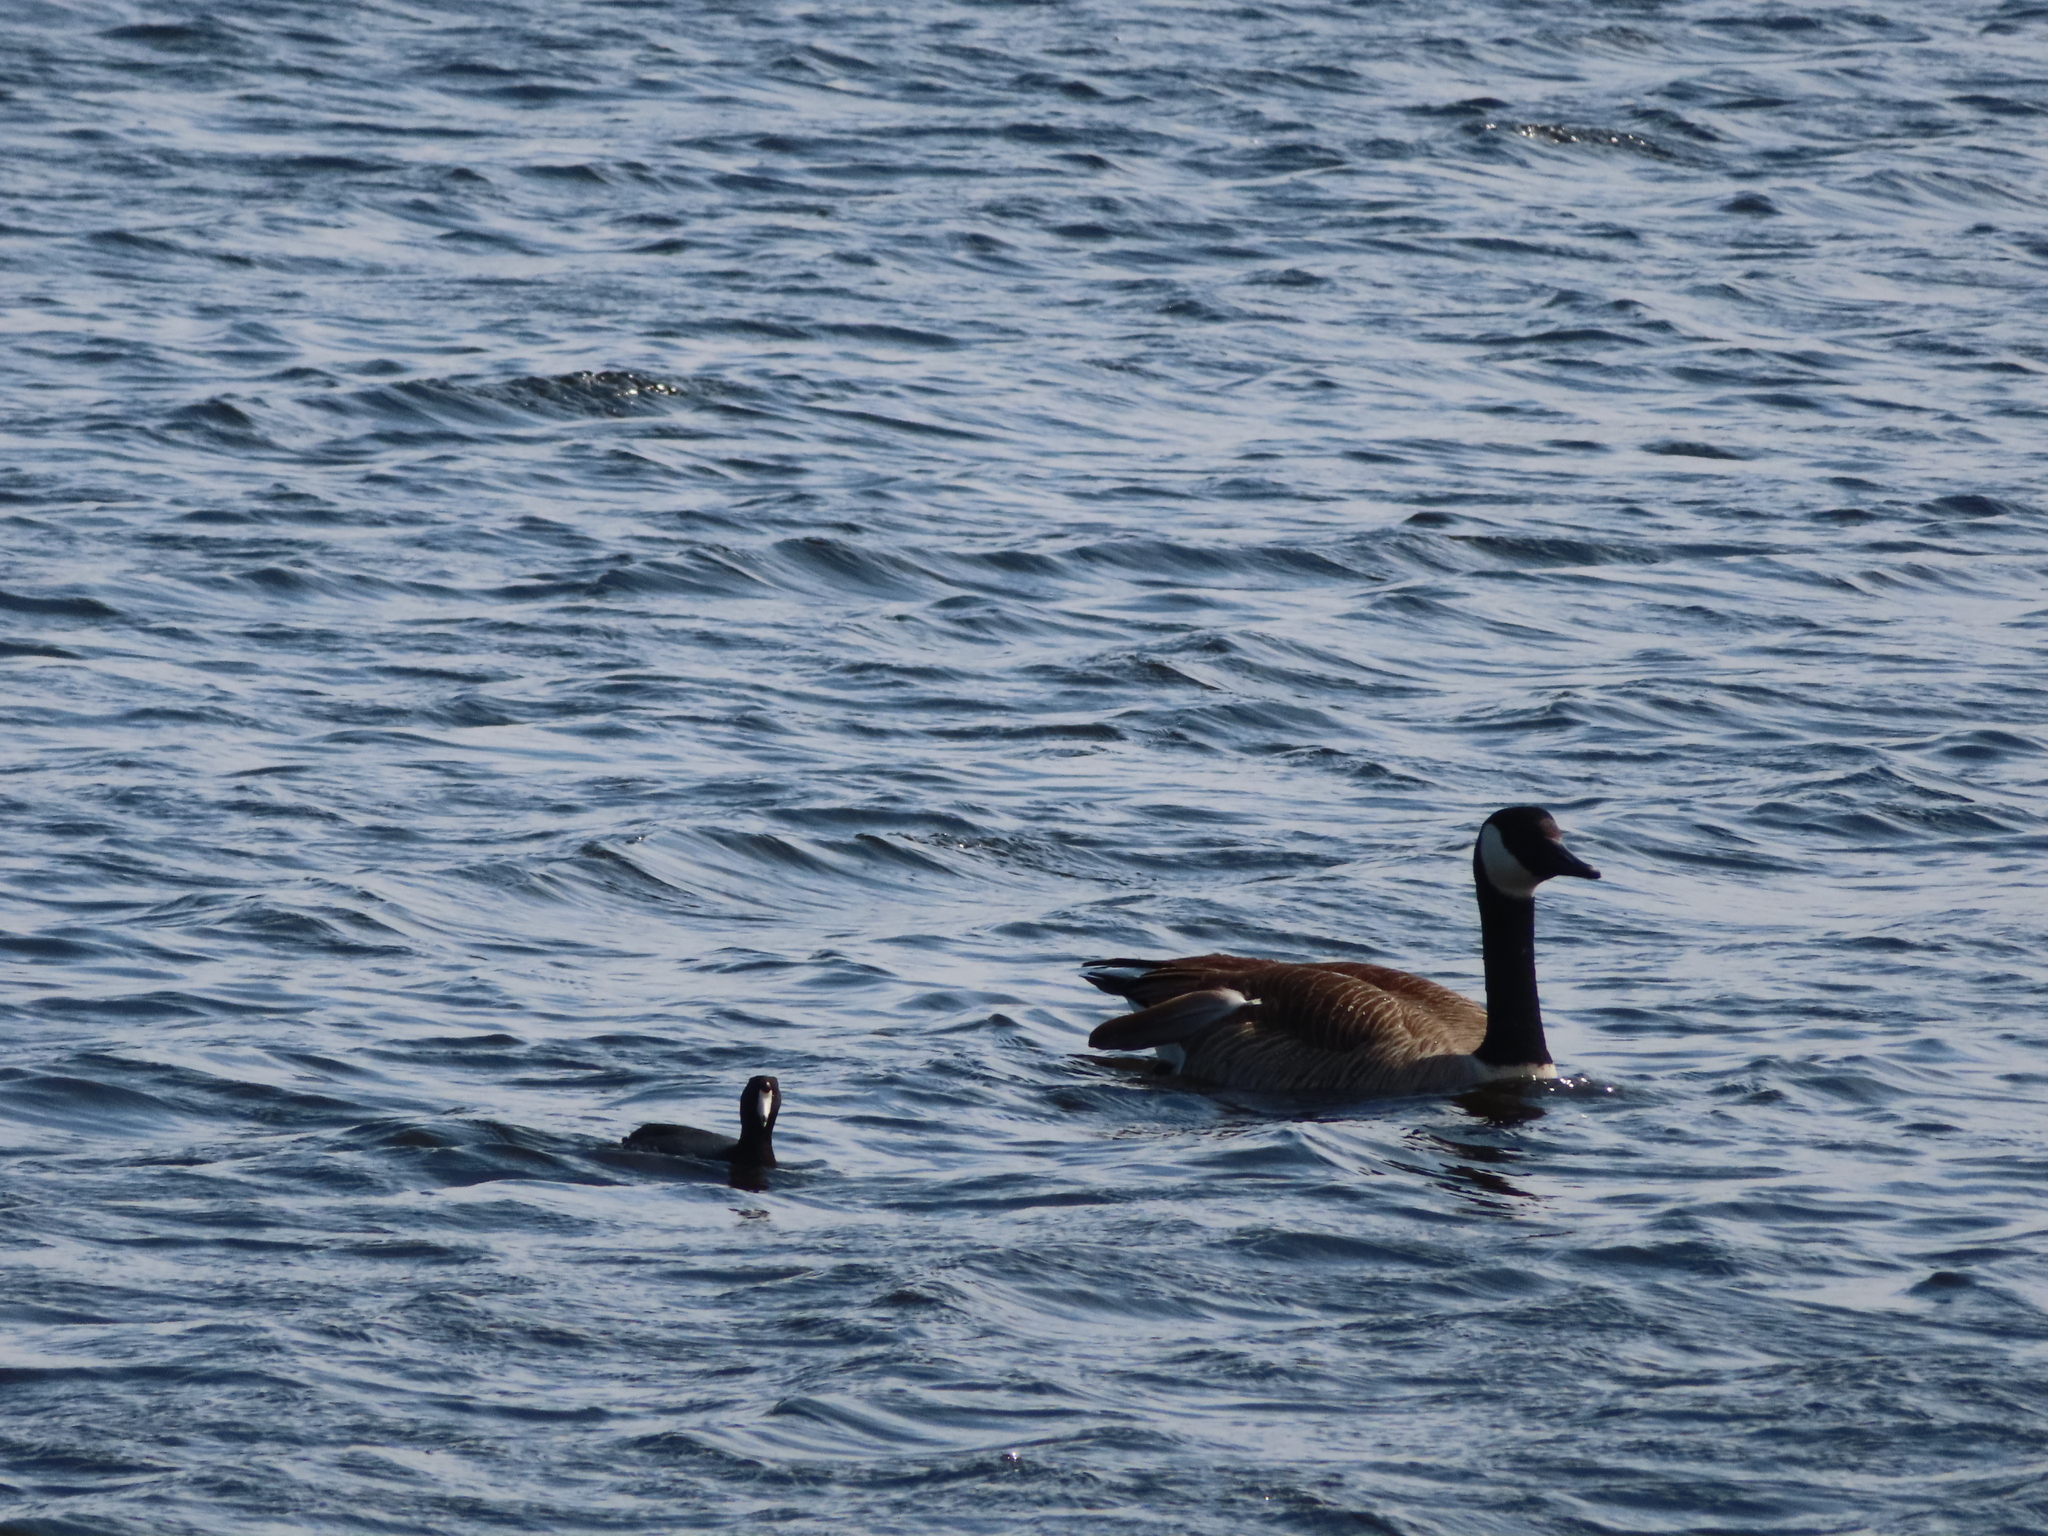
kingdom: Animalia
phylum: Chordata
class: Aves
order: Gruiformes
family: Rallidae
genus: Fulica
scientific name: Fulica americana
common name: American coot
